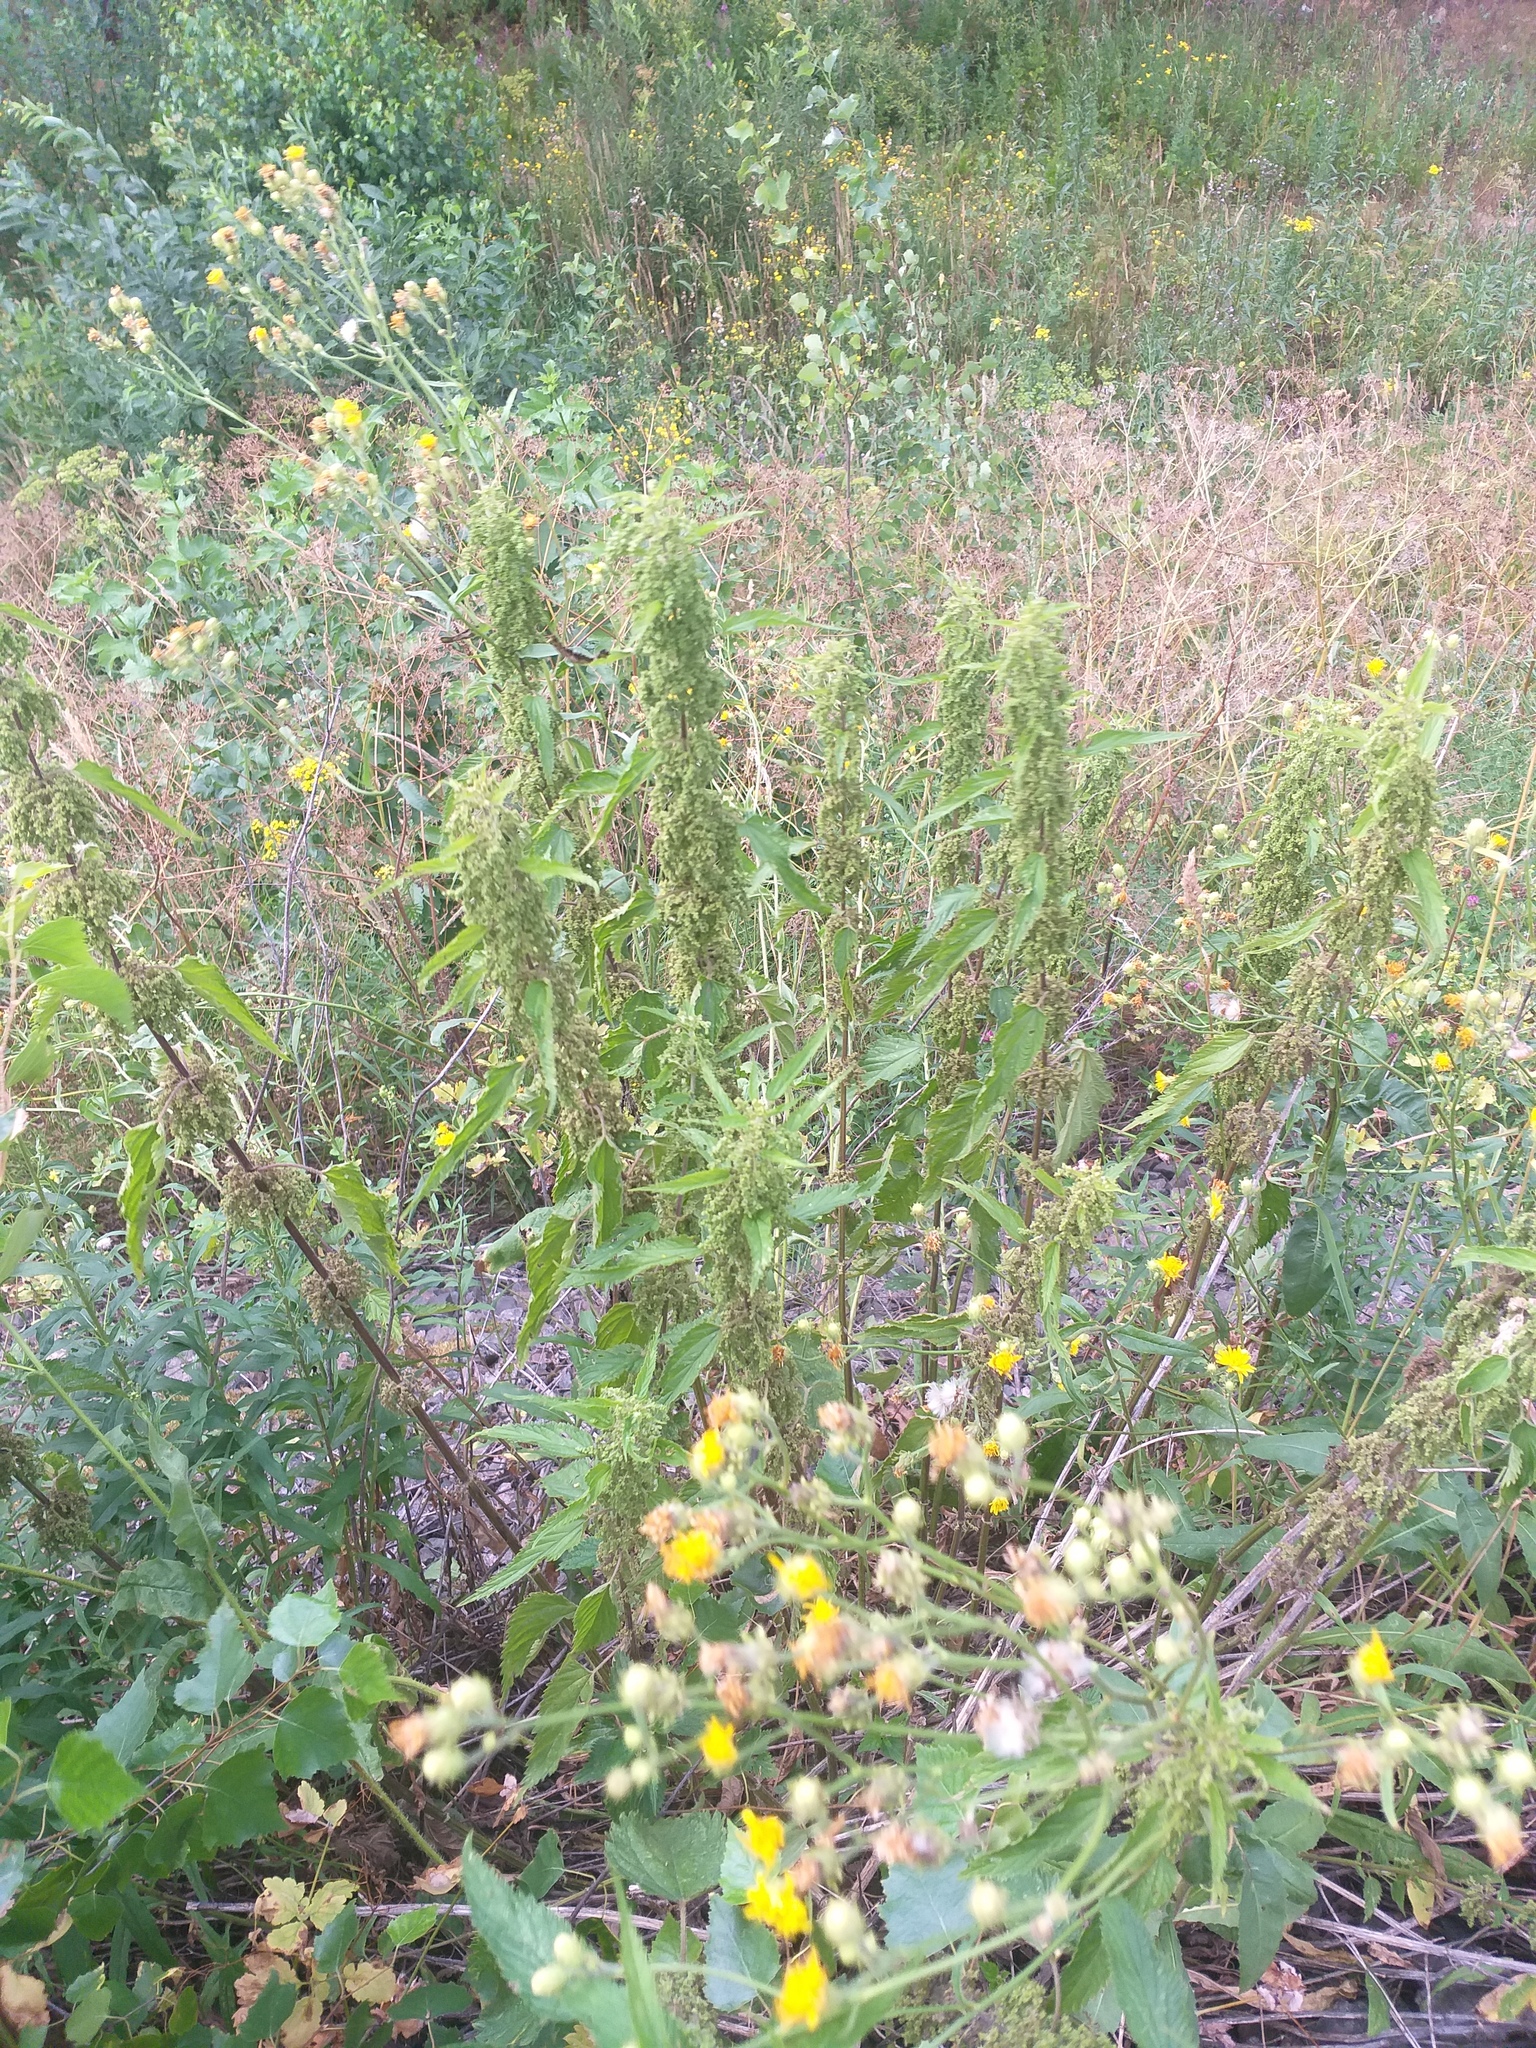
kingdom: Plantae
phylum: Tracheophyta
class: Magnoliopsida
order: Rosales
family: Urticaceae
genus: Urtica
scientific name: Urtica dioica
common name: Common nettle
